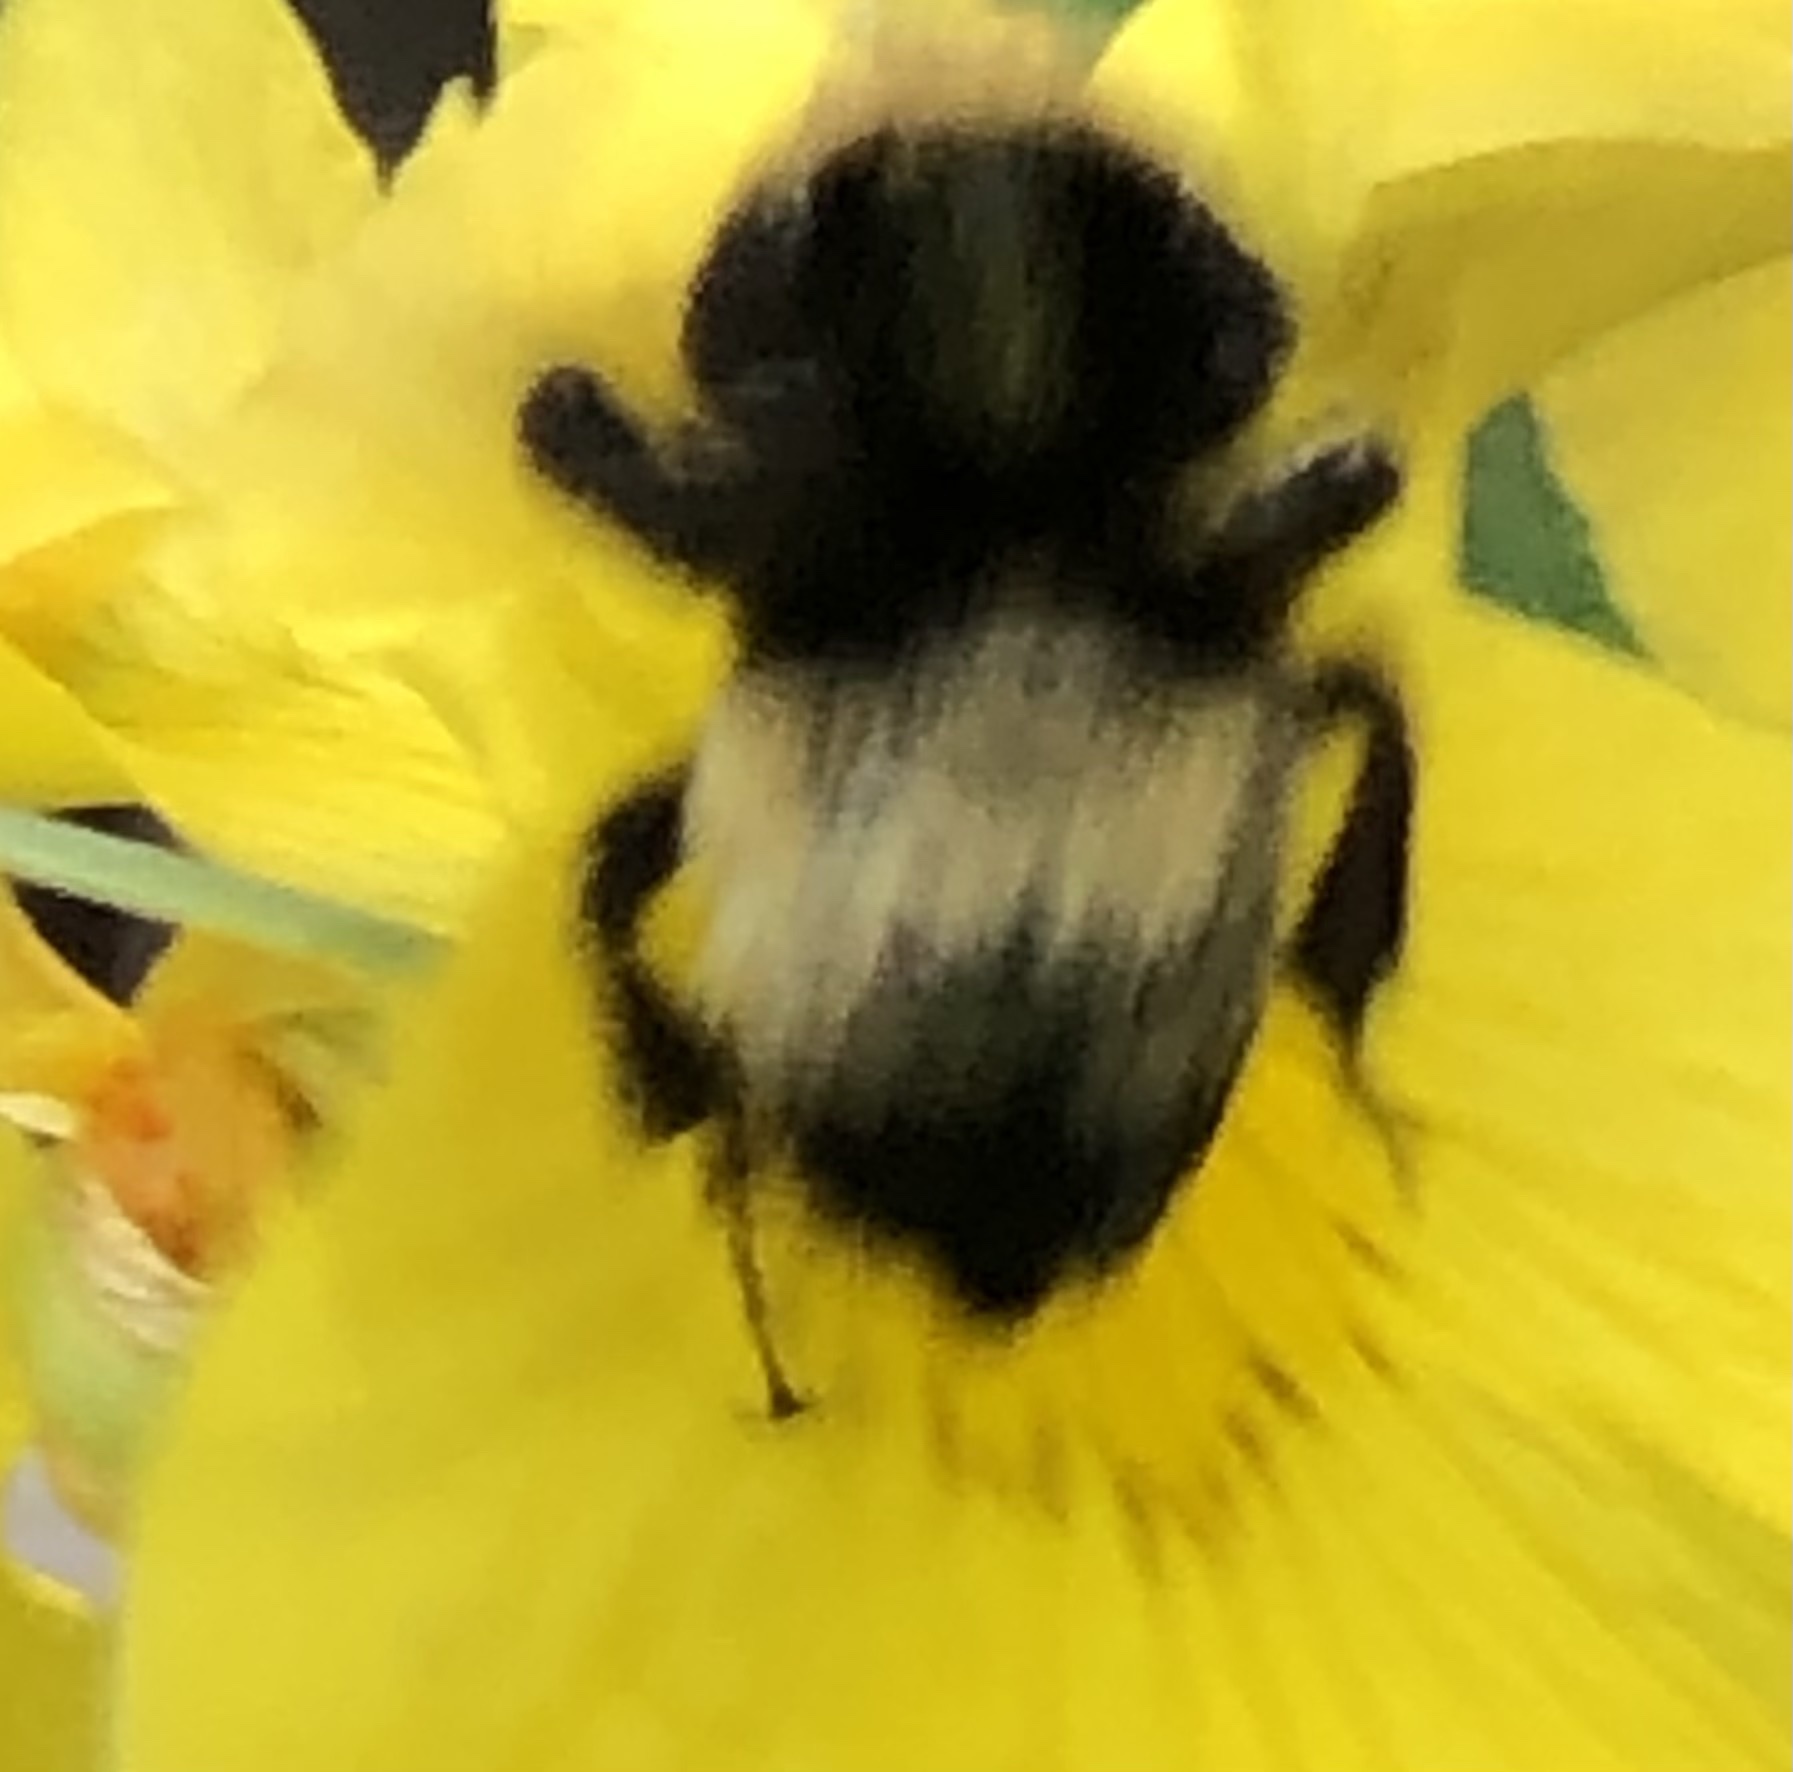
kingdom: Animalia
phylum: Arthropoda
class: Insecta
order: Hymenoptera
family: Apidae
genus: Bombus
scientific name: Bombus pensylvanicus
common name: Bumble bee
